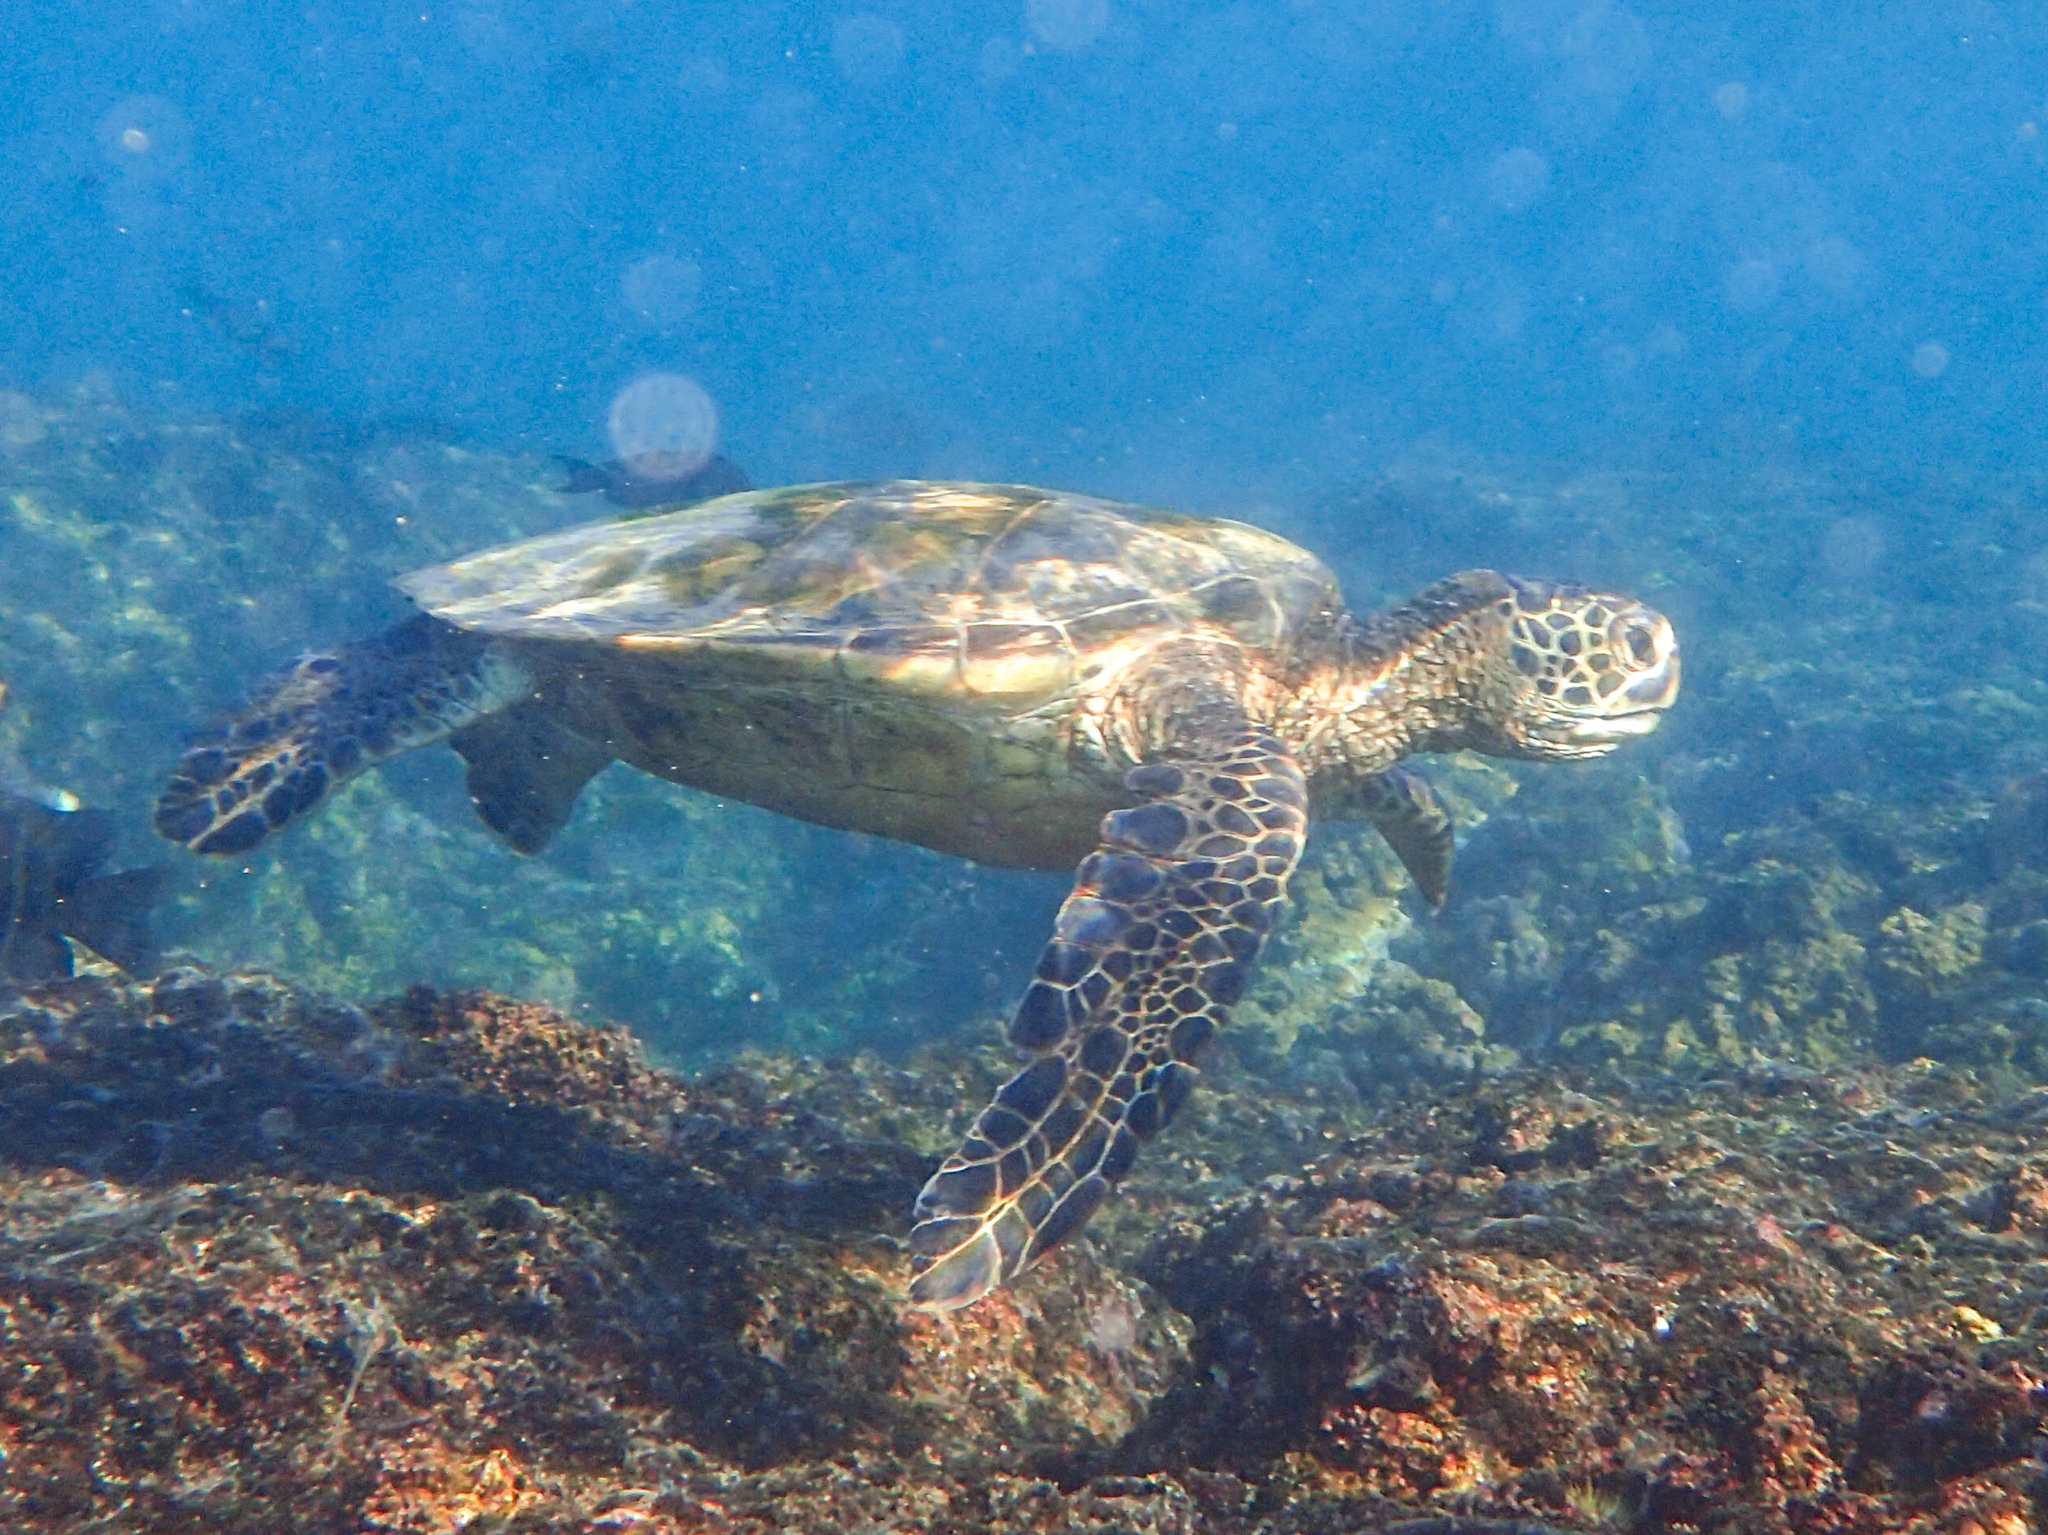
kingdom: Animalia
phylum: Chordata
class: Testudines
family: Cheloniidae
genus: Chelonia
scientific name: Chelonia mydas
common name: Green turtle
